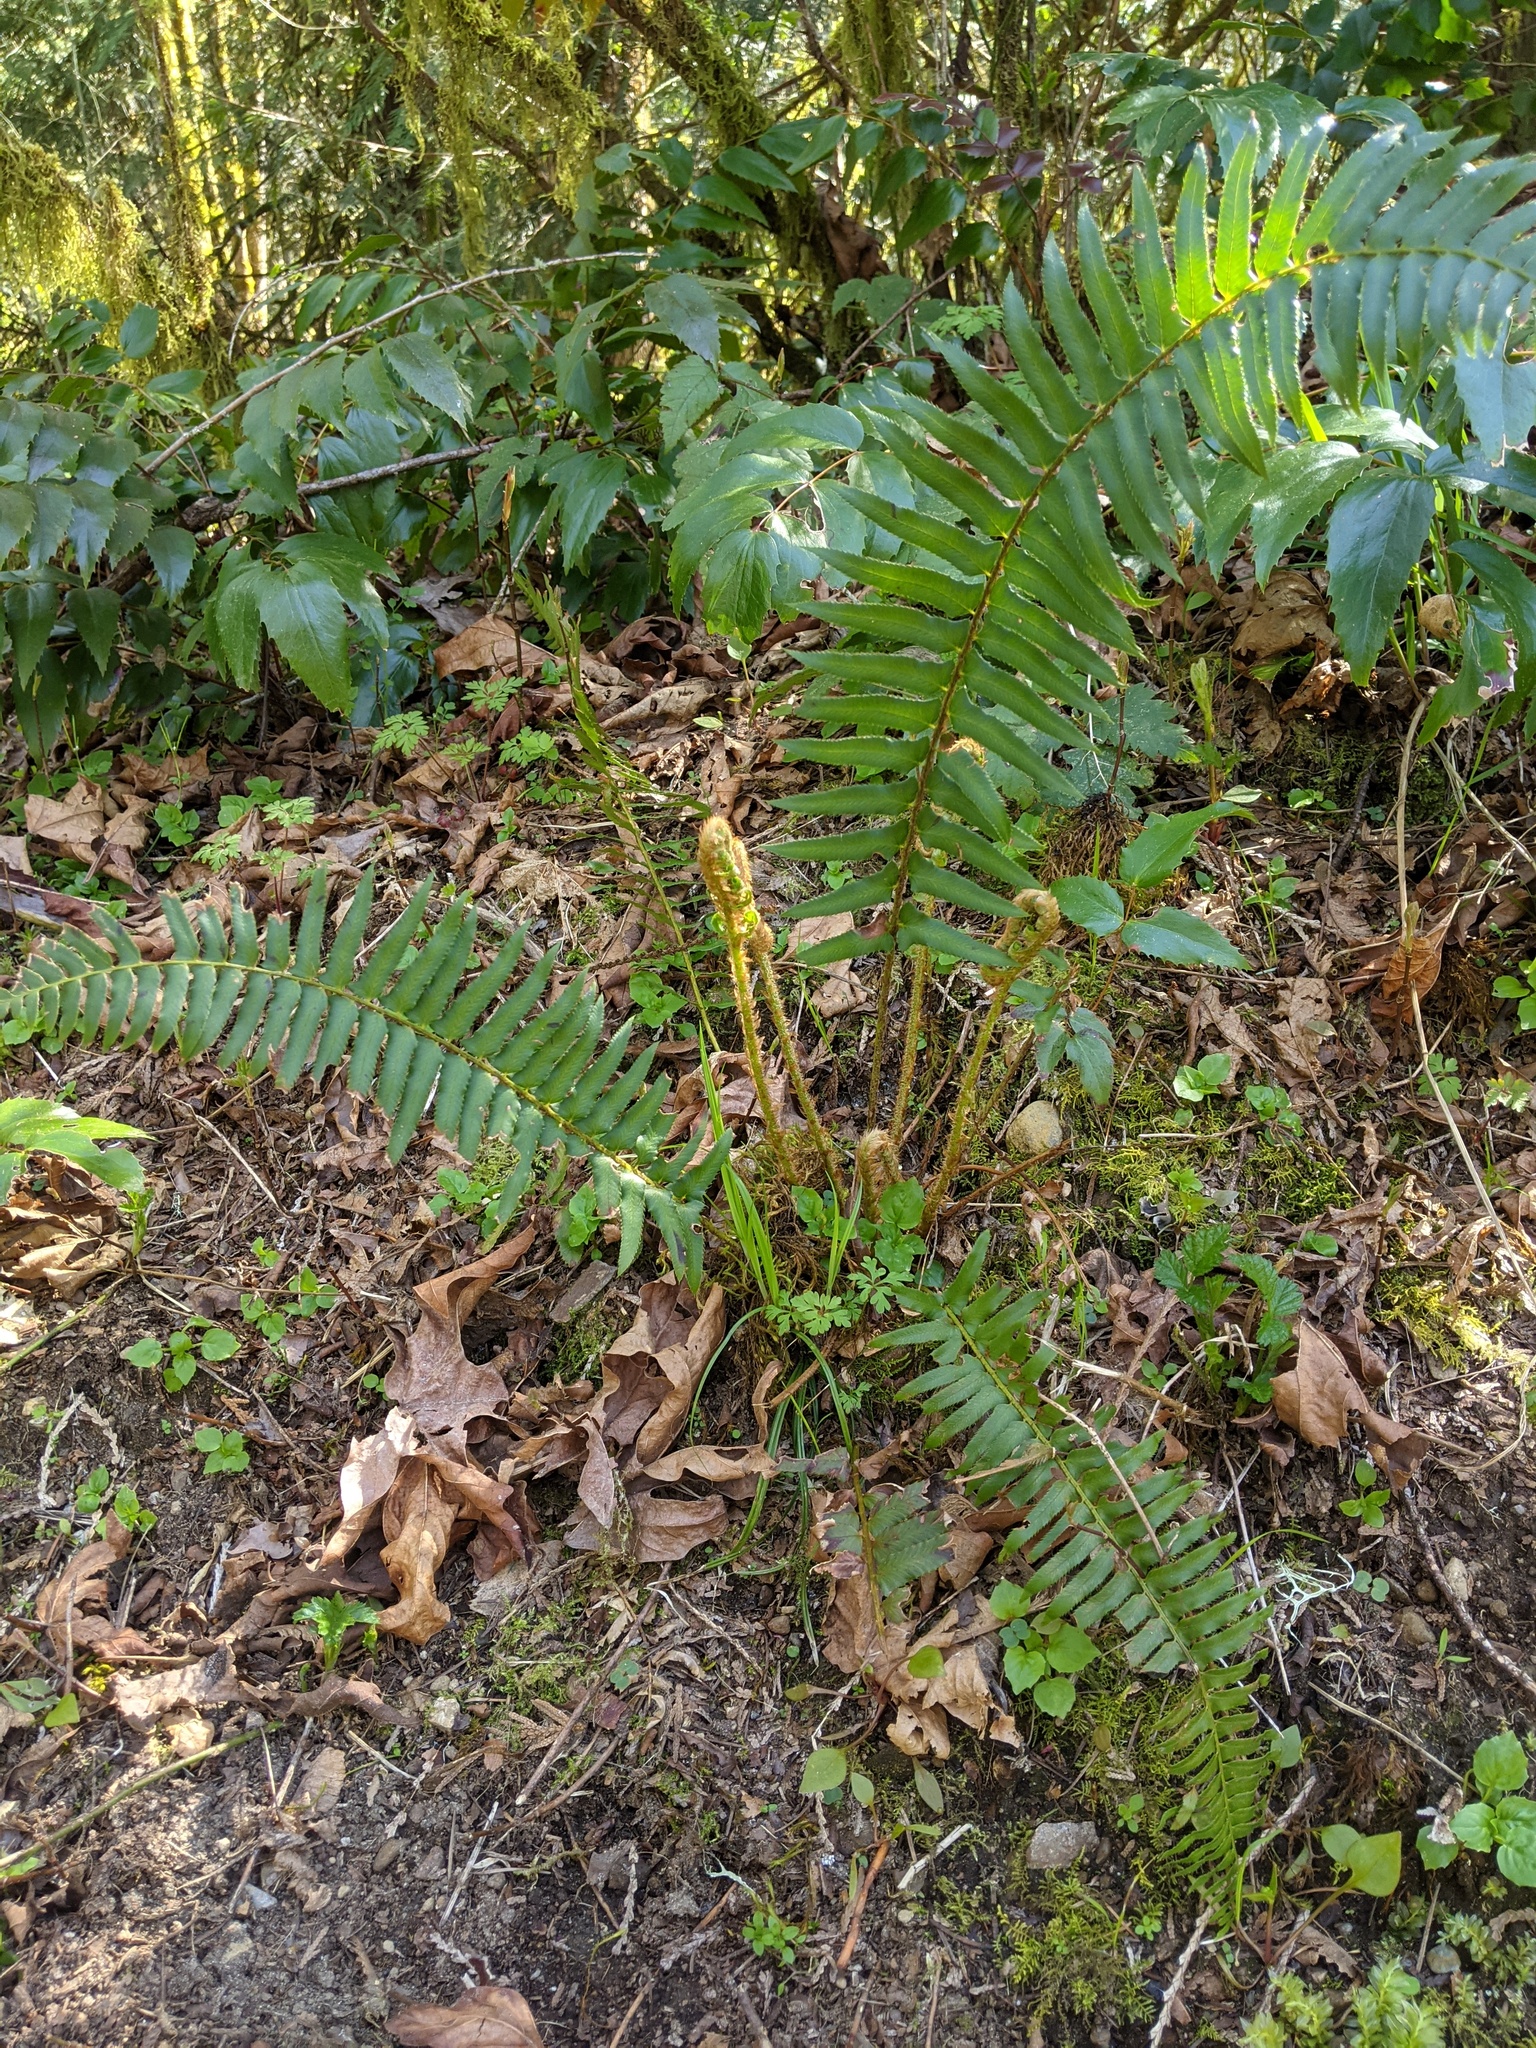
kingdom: Plantae
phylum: Tracheophyta
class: Polypodiopsida
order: Polypodiales
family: Dryopteridaceae
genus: Polystichum
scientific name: Polystichum munitum
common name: Western sword-fern
